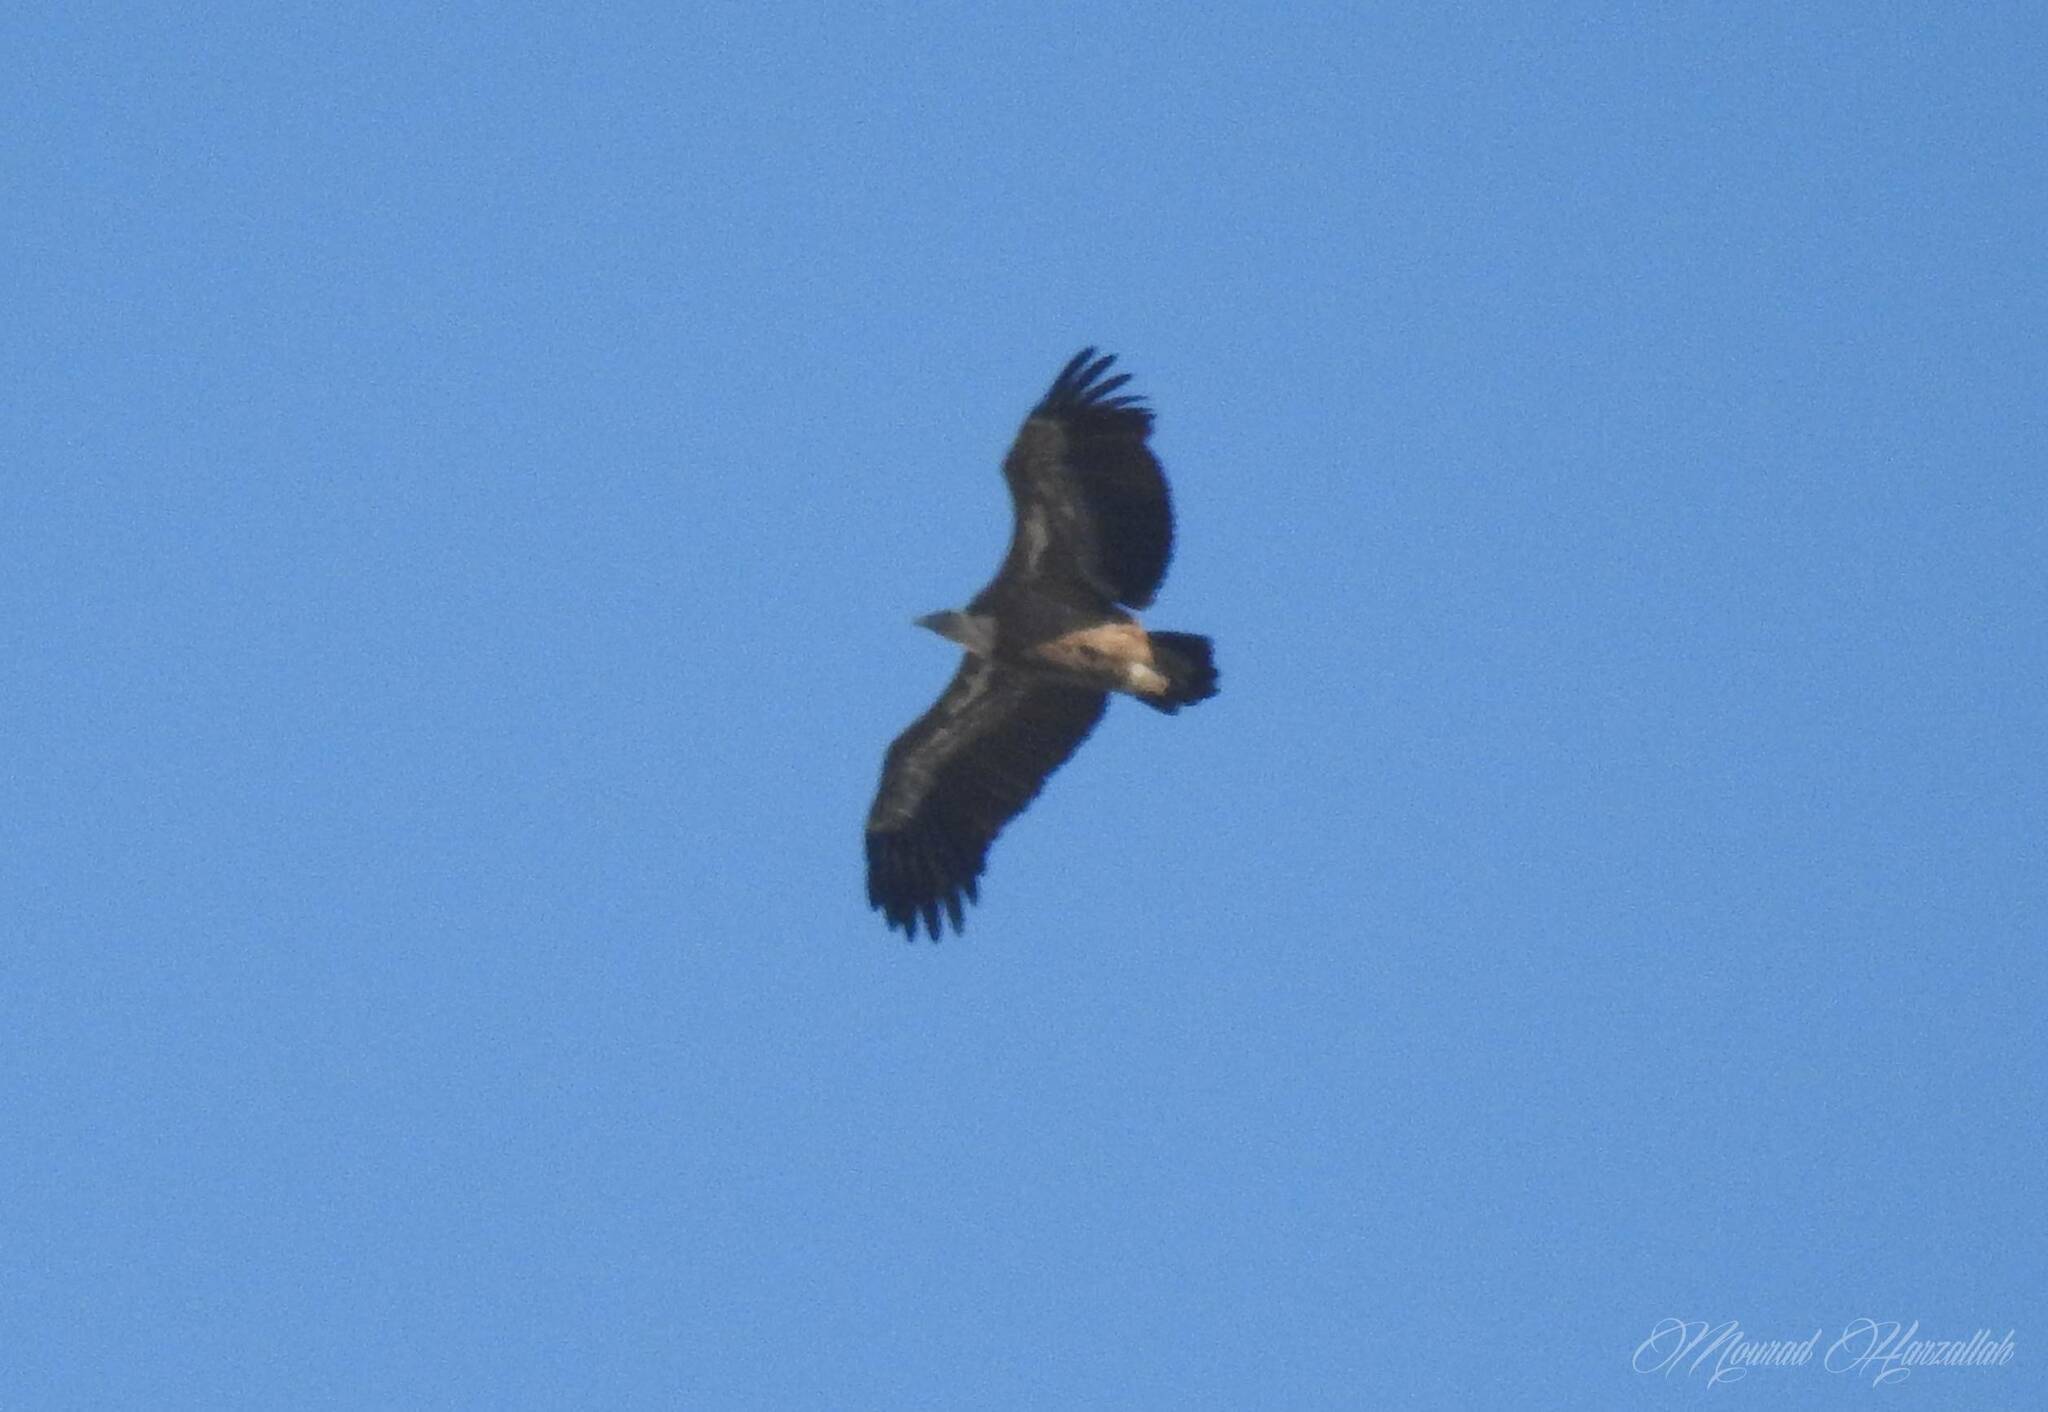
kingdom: Animalia
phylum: Chordata
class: Aves
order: Accipitriformes
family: Accipitridae
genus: Gyps
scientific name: Gyps fulvus
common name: Griffon vulture
